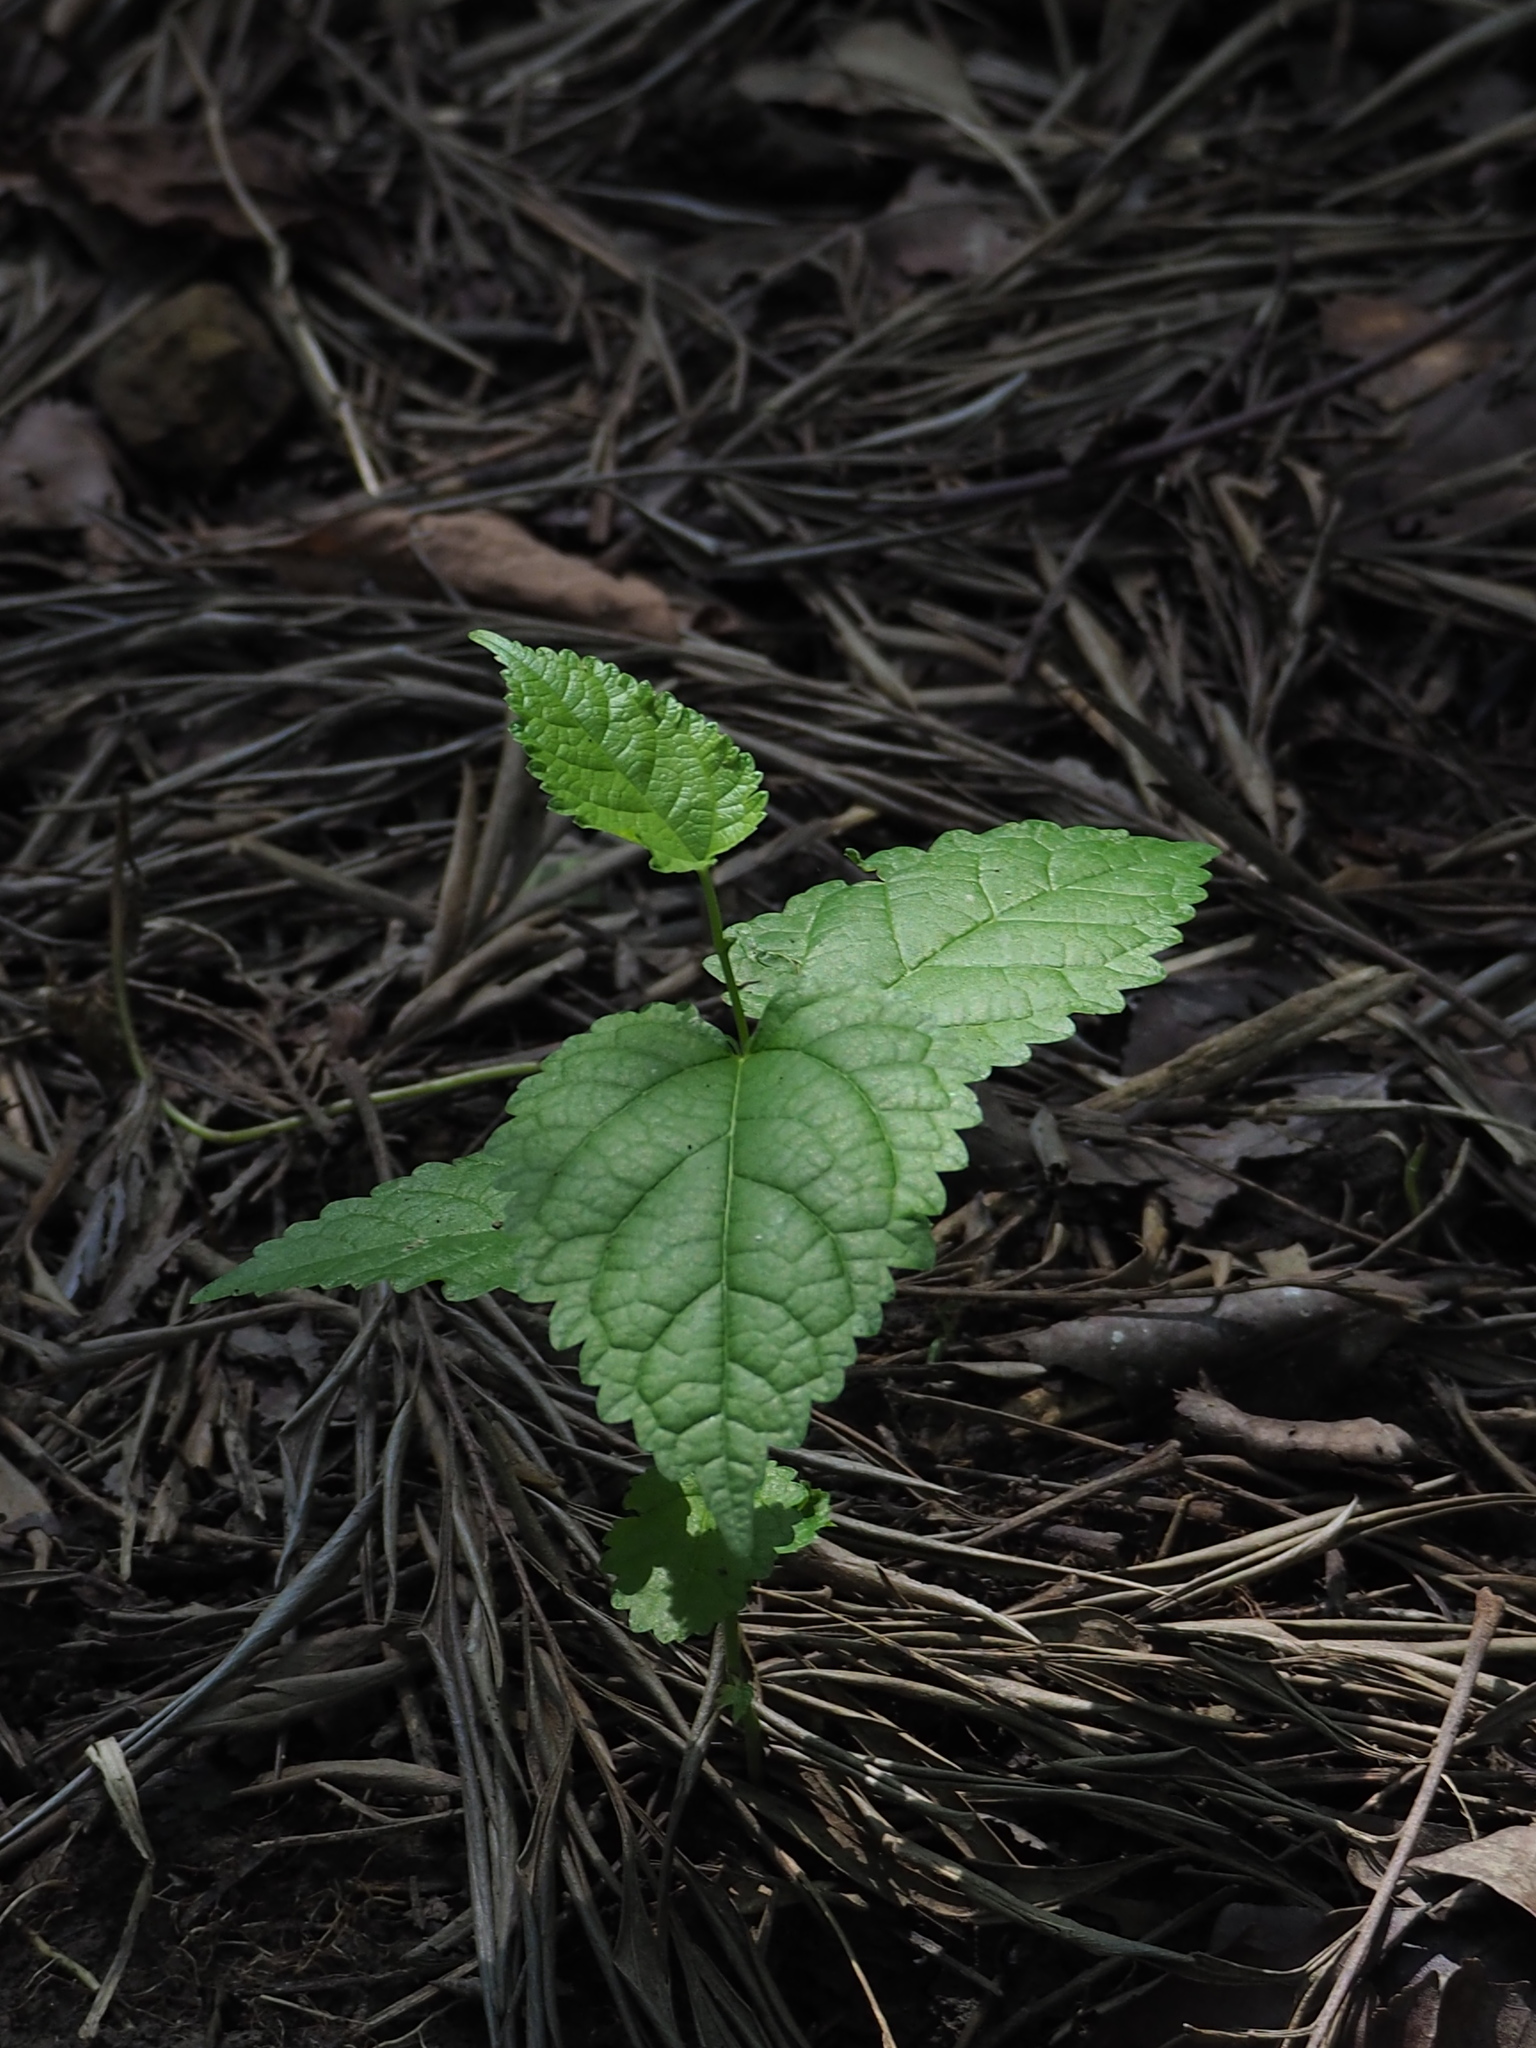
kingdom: Plantae
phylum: Tracheophyta
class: Magnoliopsida
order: Rosales
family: Moraceae
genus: Morus
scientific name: Morus indica
